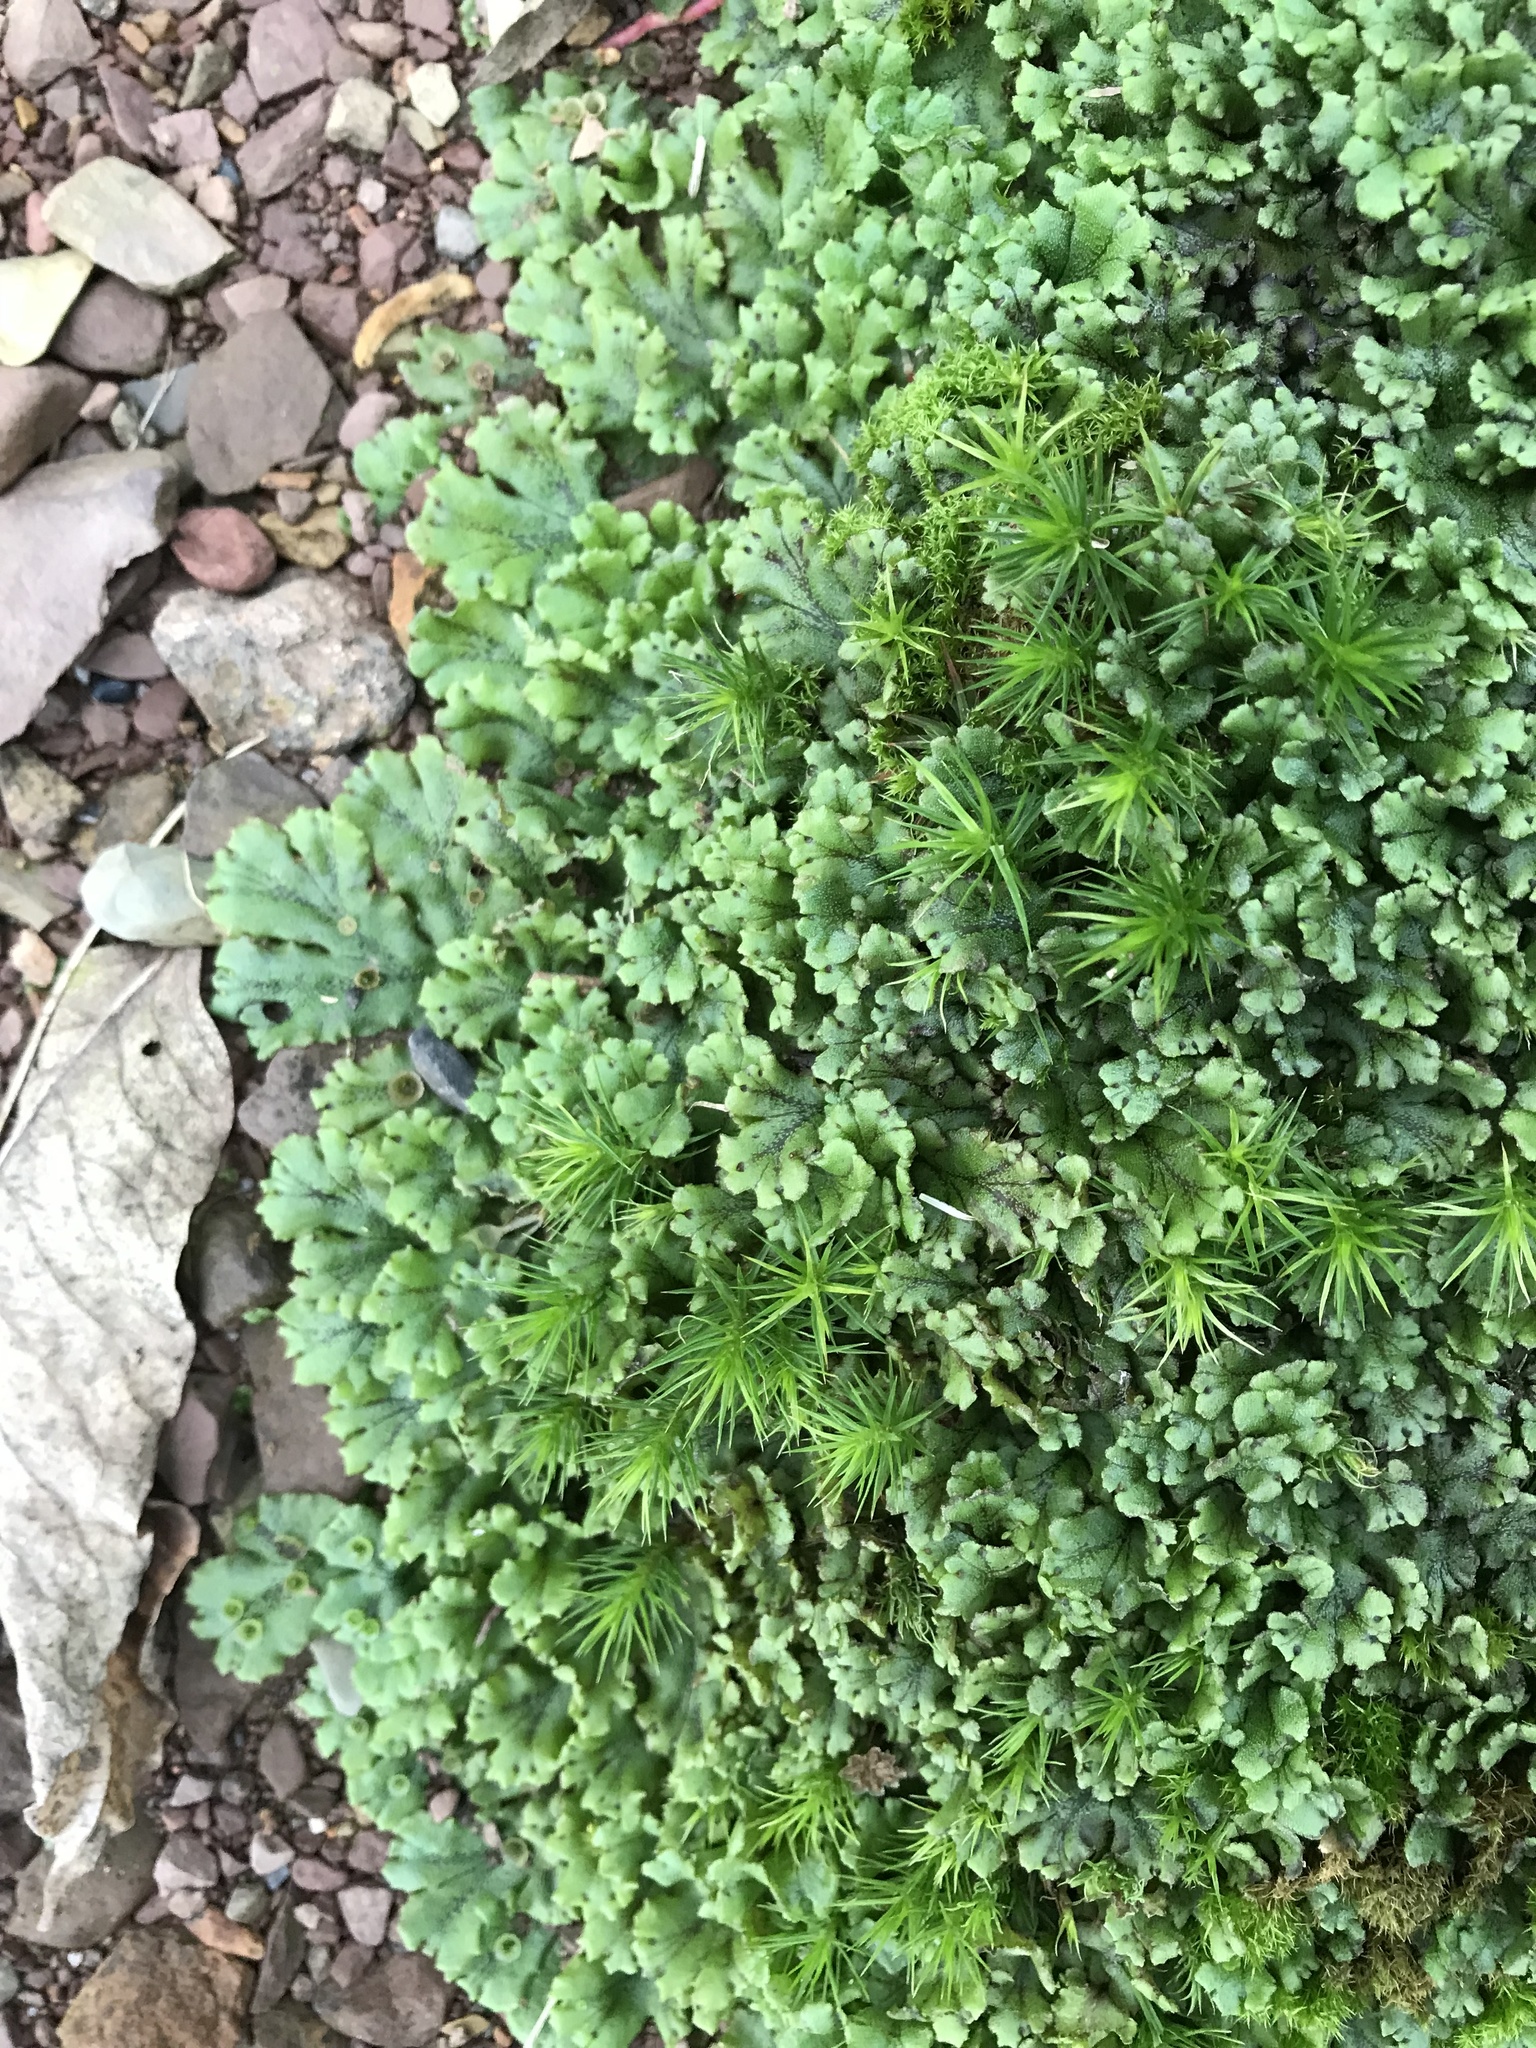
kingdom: Plantae
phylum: Marchantiophyta
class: Marchantiopsida
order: Marchantiales
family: Marchantiaceae
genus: Marchantia
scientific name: Marchantia polymorpha
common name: Common liverwort
